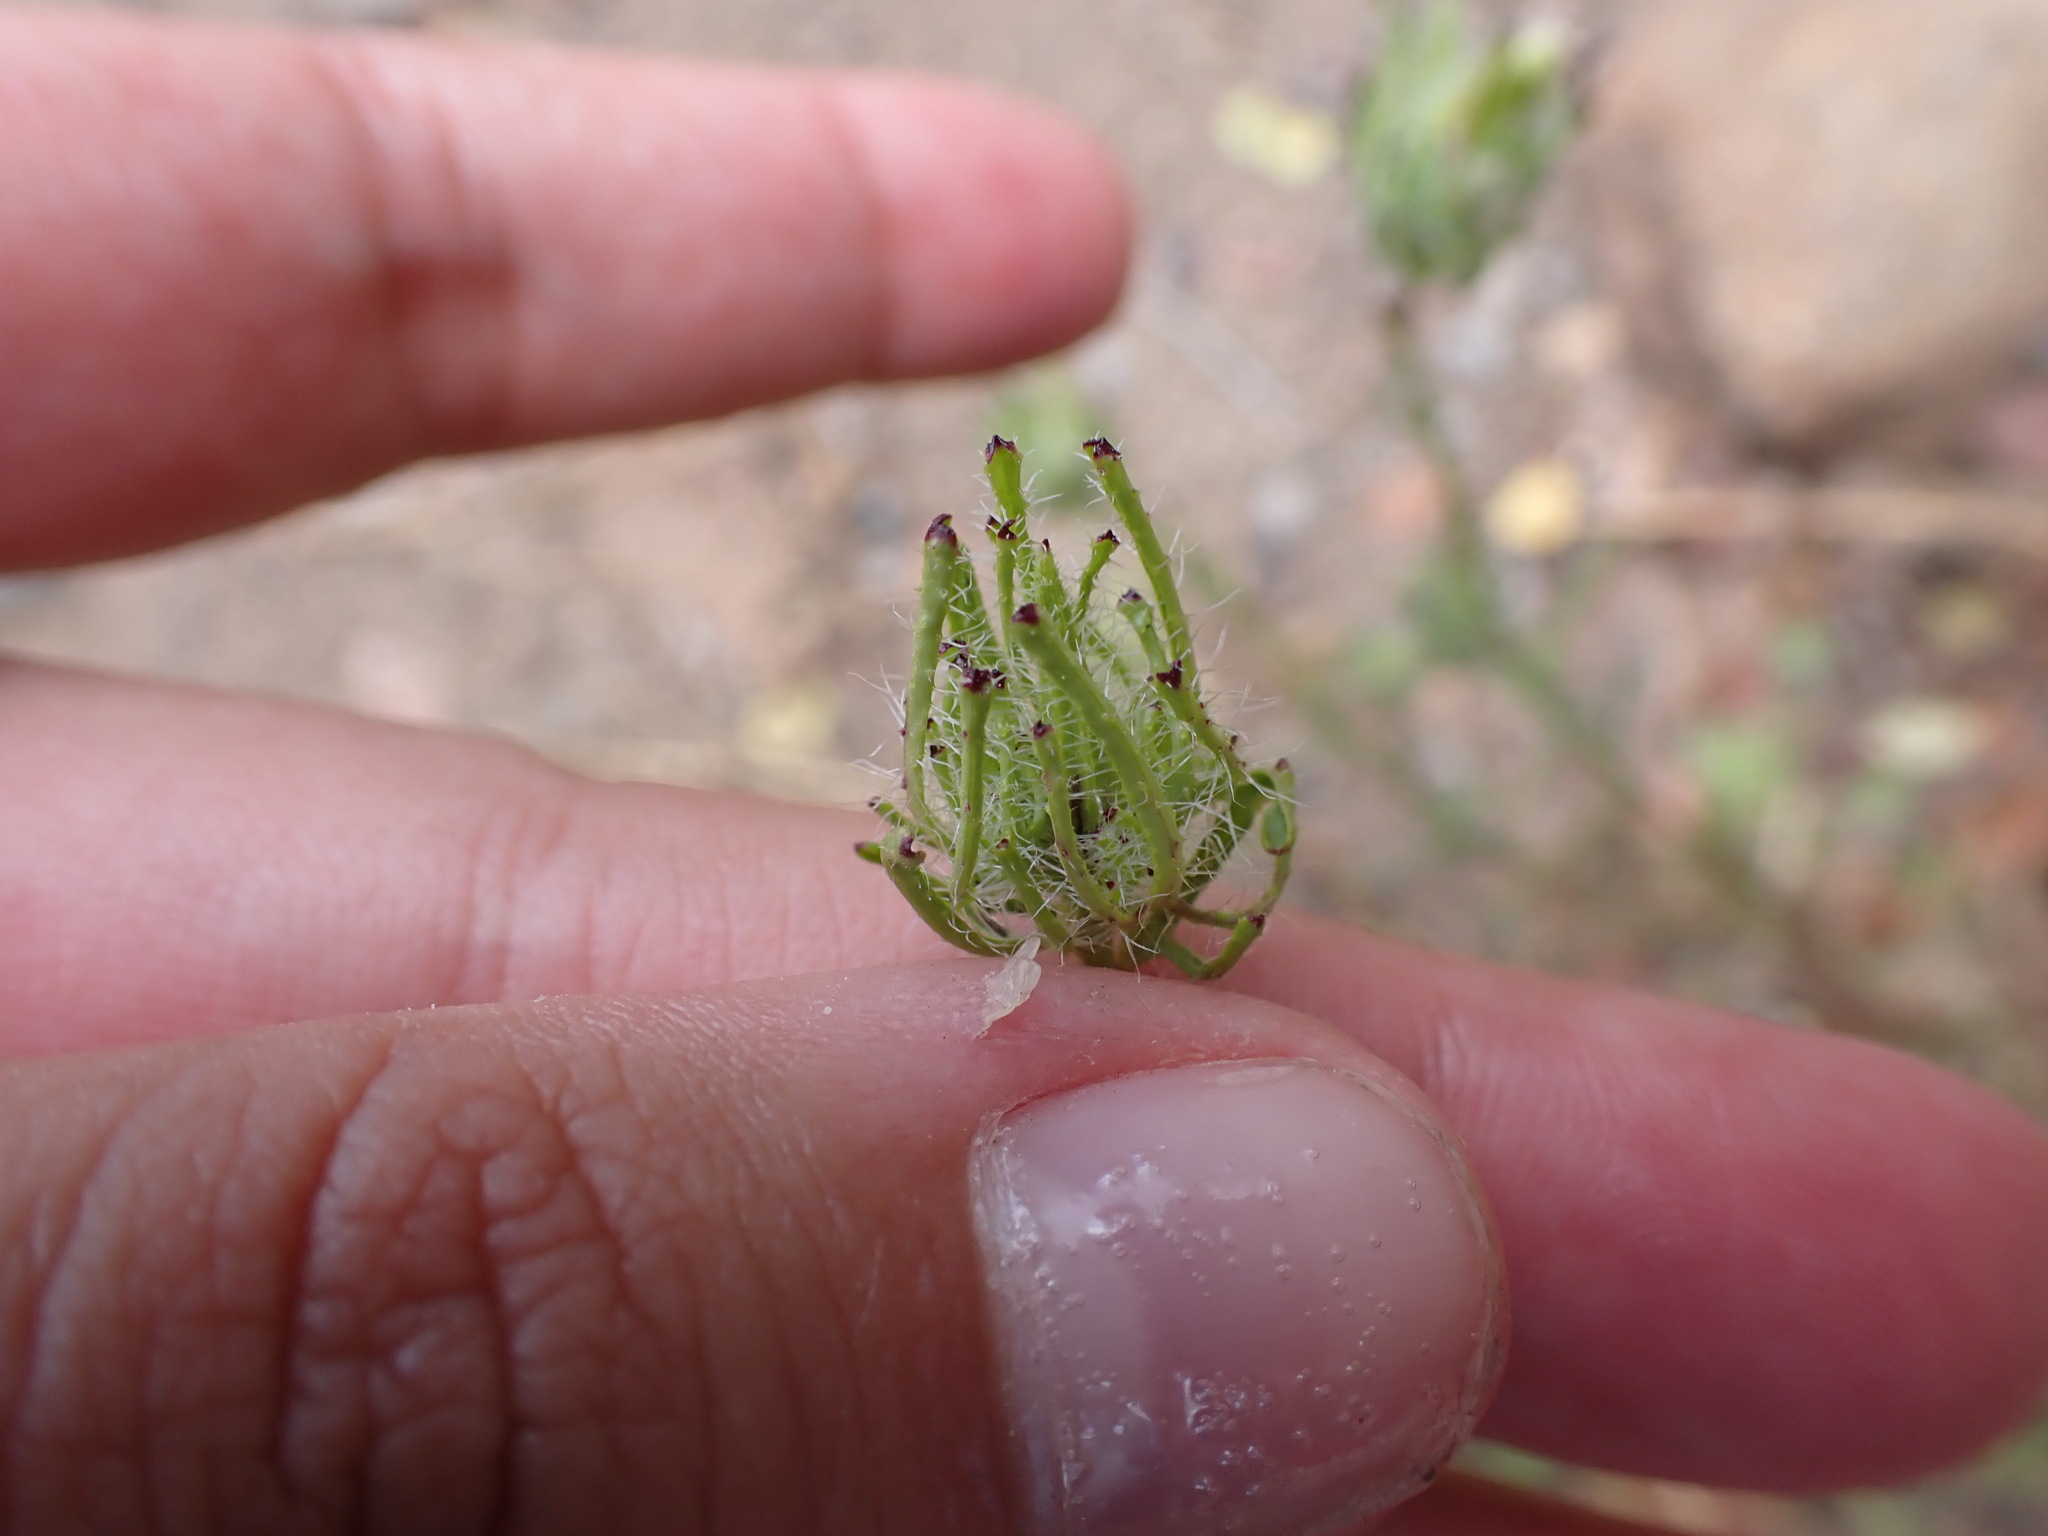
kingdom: Plantae
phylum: Tracheophyta
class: Magnoliopsida
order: Lamiales
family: Orobanchaceae
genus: Cordylanthus
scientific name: Cordylanthus rigidus
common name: Stiff-branch bird's-beak
